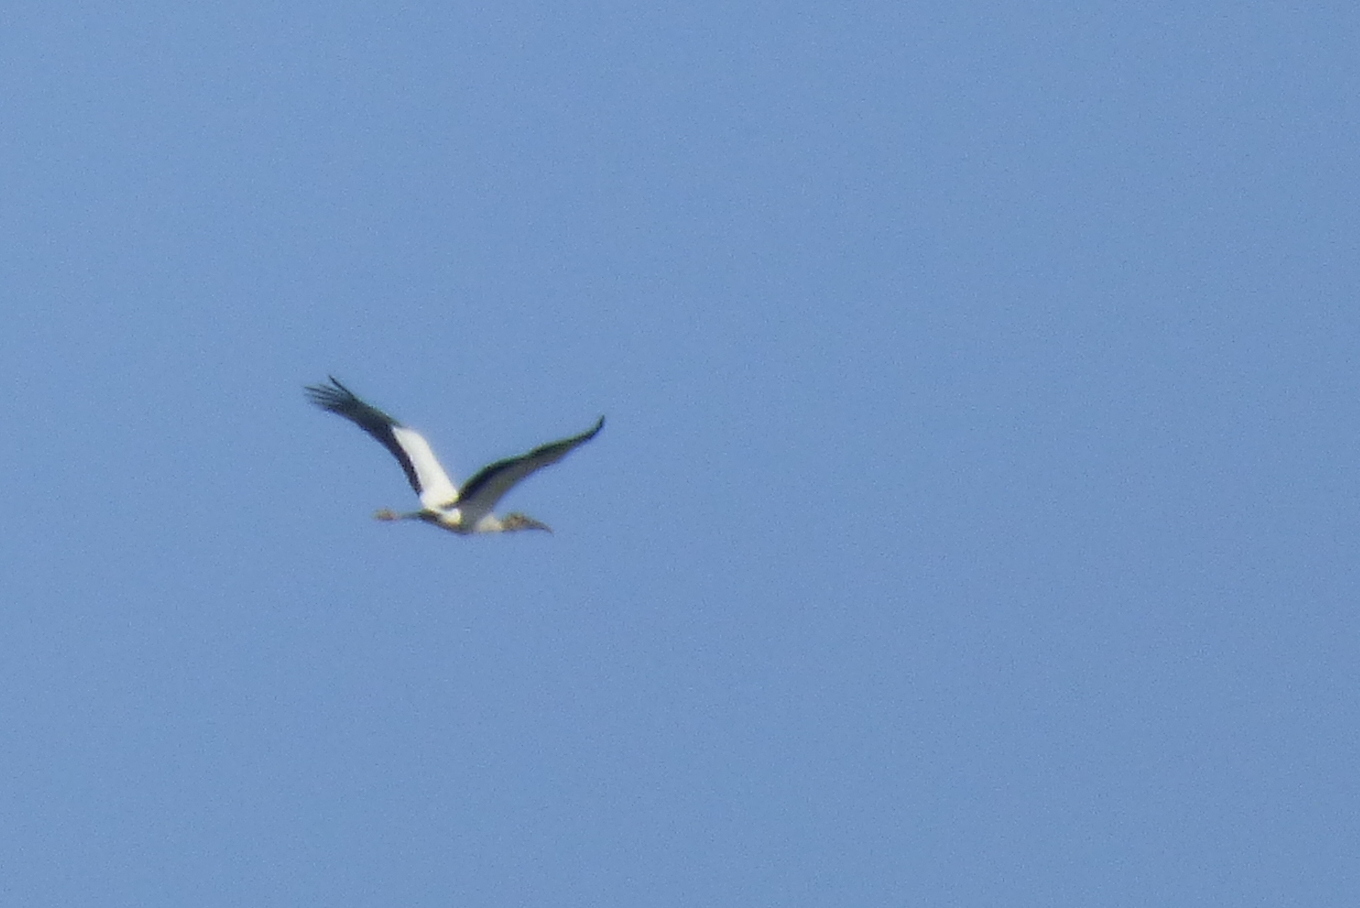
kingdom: Animalia
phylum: Chordata
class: Aves
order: Ciconiiformes
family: Ciconiidae
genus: Mycteria
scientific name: Mycteria americana
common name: Wood stork
